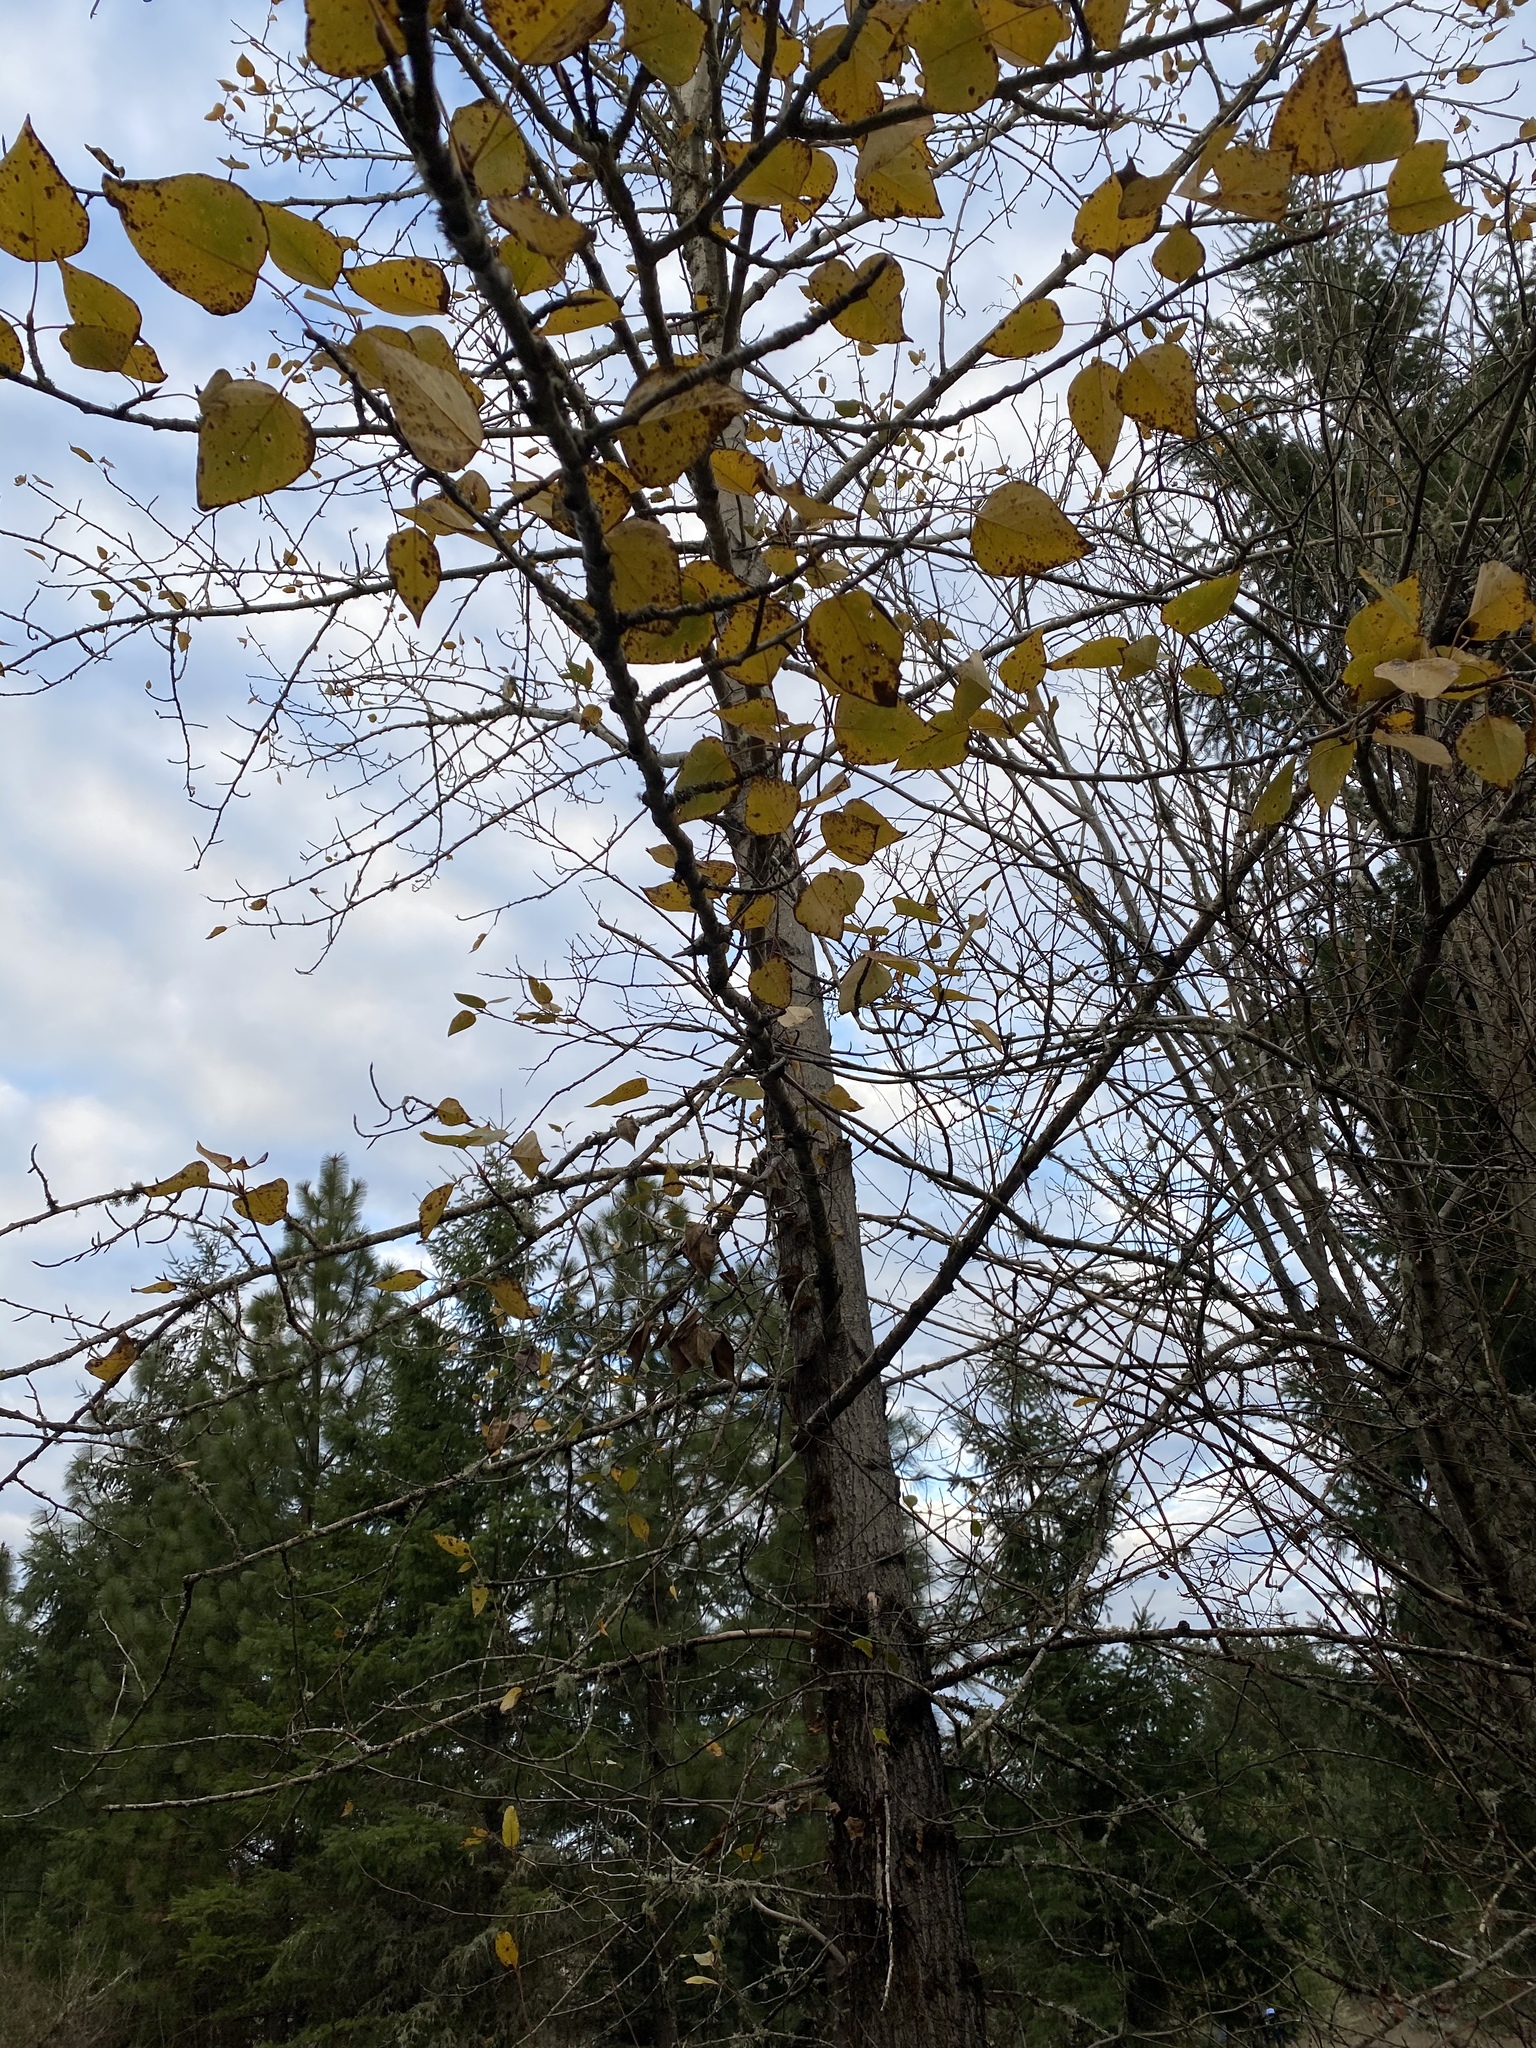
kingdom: Plantae
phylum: Tracheophyta
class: Magnoliopsida
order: Malpighiales
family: Salicaceae
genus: Populus
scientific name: Populus trichocarpa
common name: Black cottonwood
